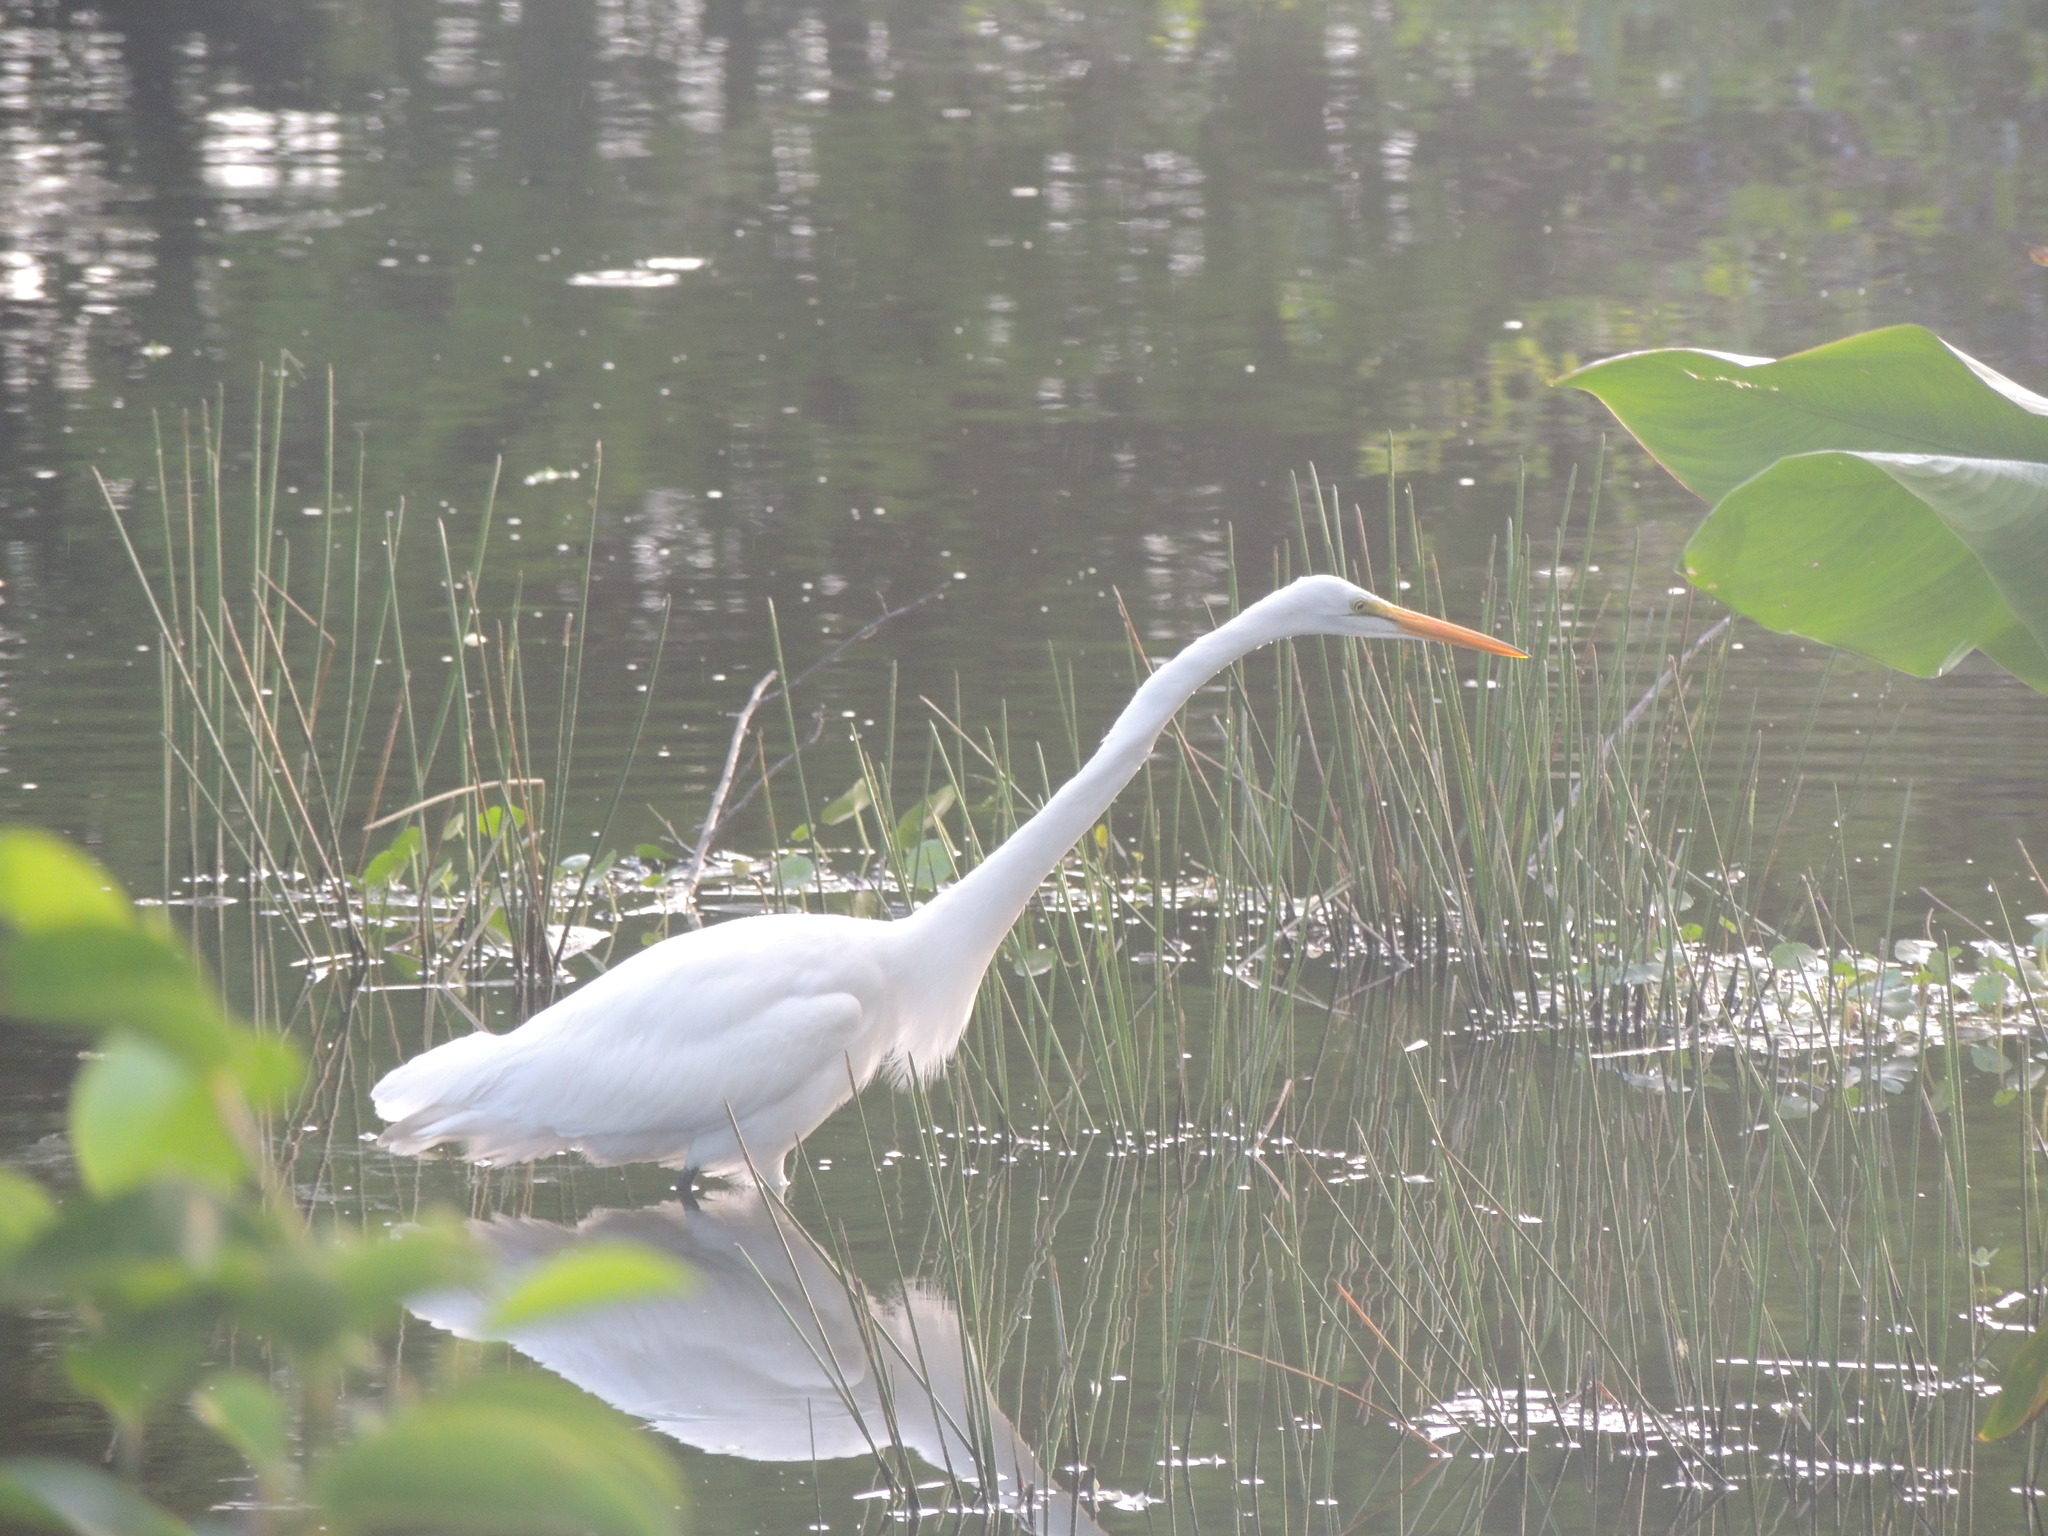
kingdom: Animalia
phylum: Chordata
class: Aves
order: Pelecaniformes
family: Ardeidae
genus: Ardea
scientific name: Ardea alba
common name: Great egret
